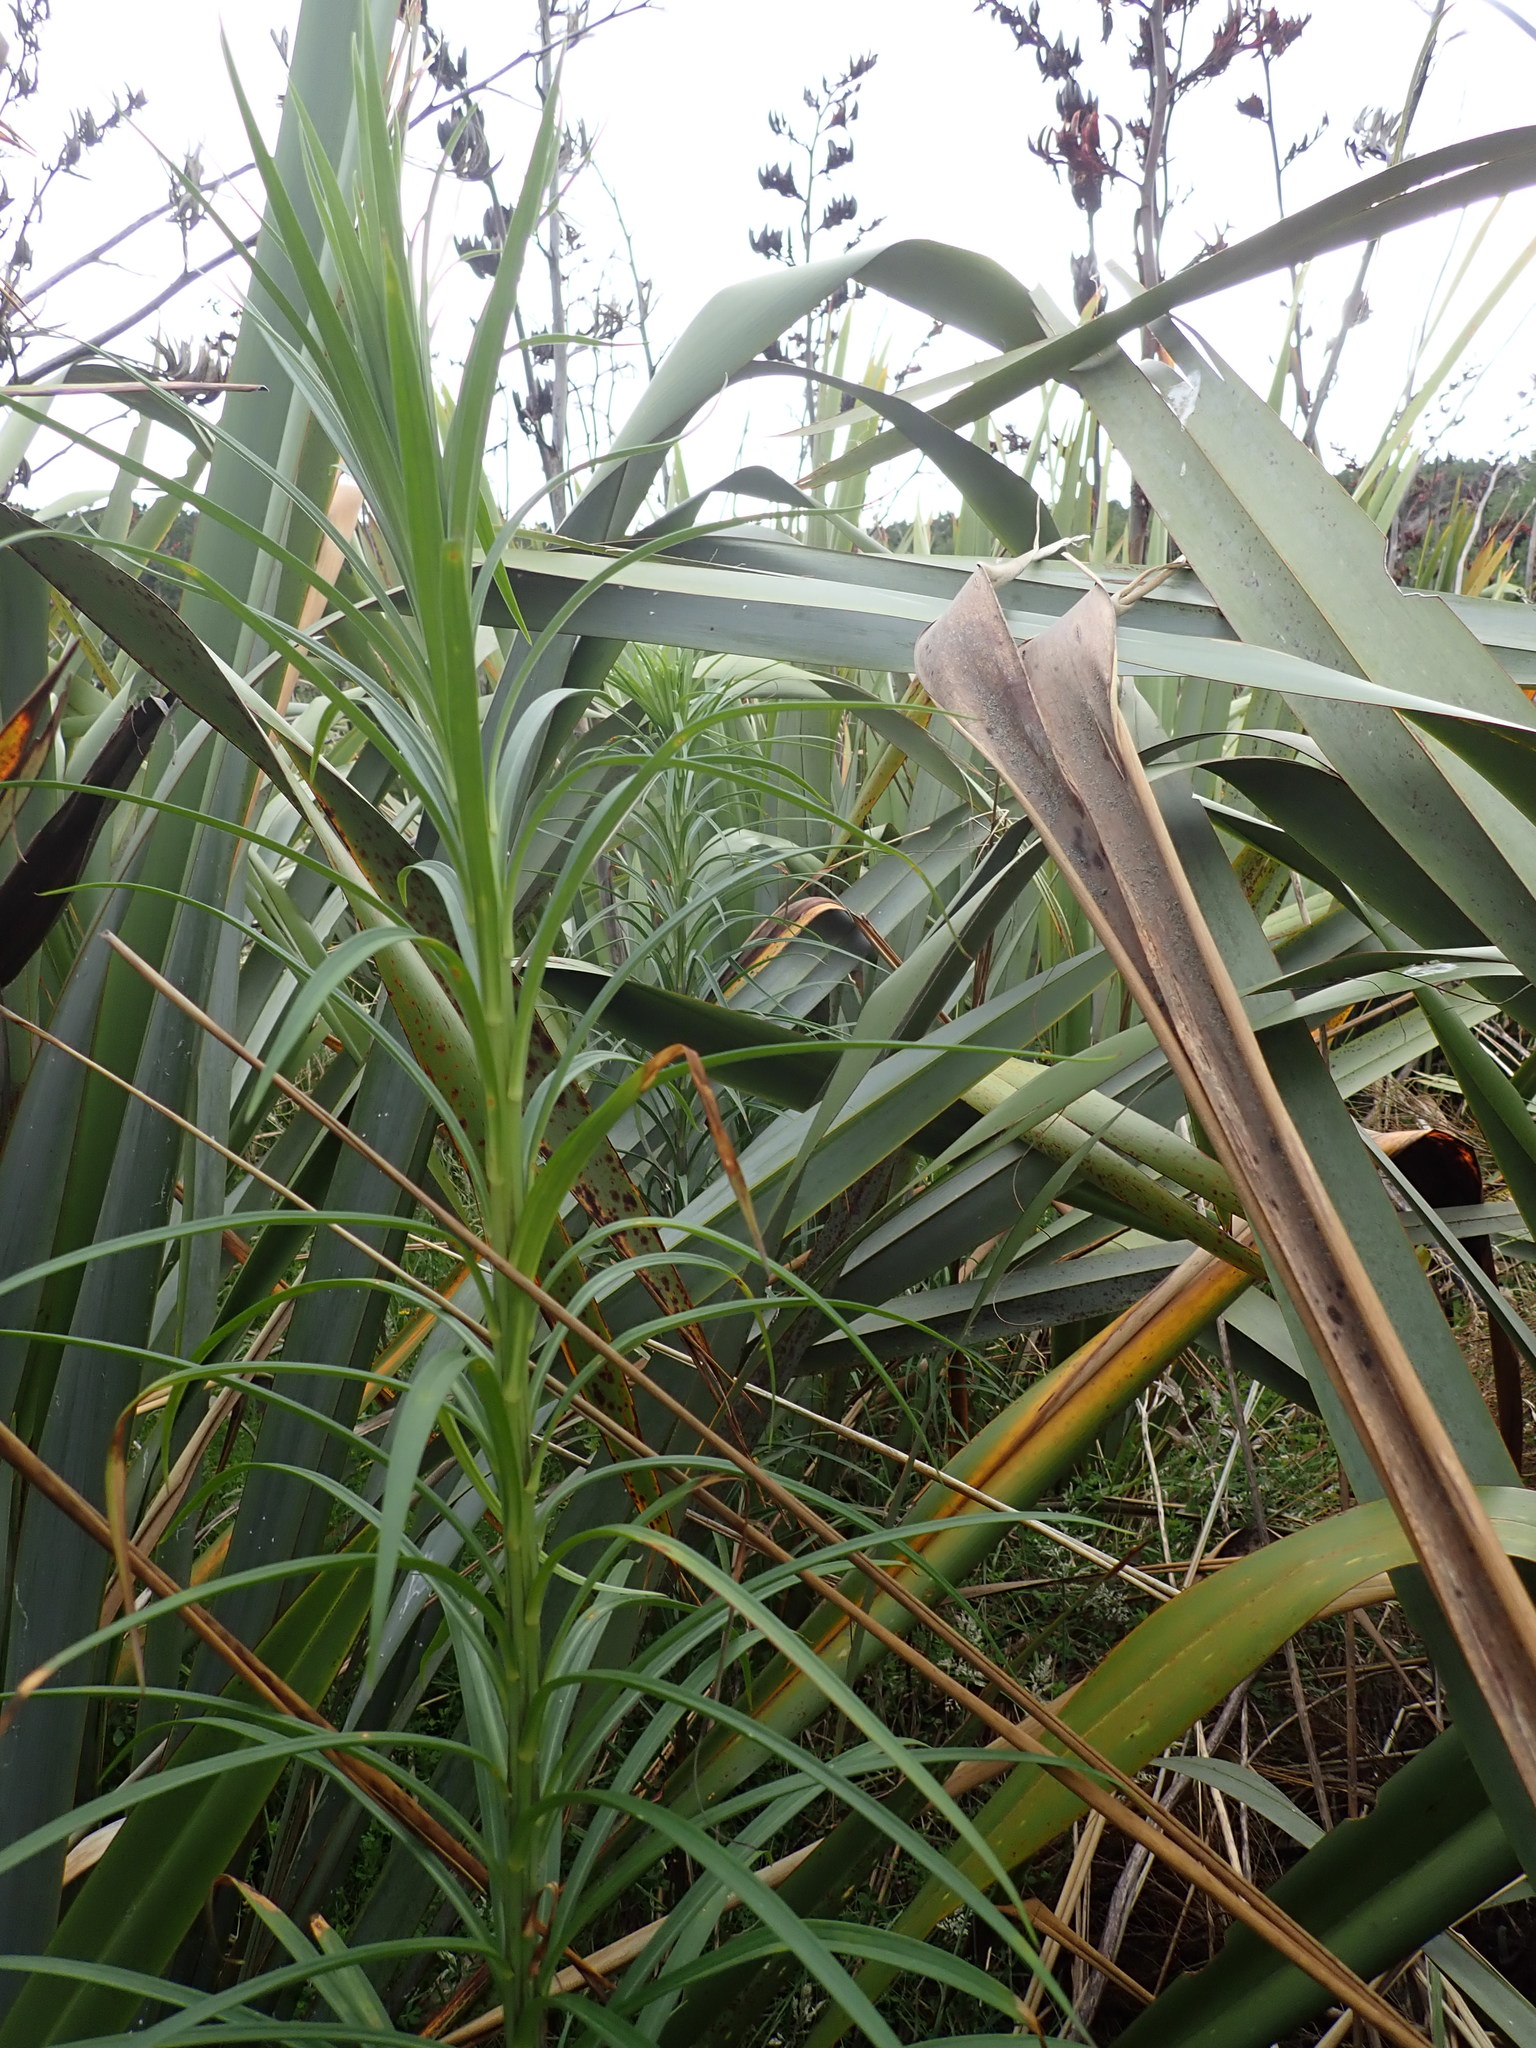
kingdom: Plantae
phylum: Tracheophyta
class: Liliopsida
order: Liliales
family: Liliaceae
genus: Lilium
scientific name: Lilium formosanum
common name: Formosa lily
